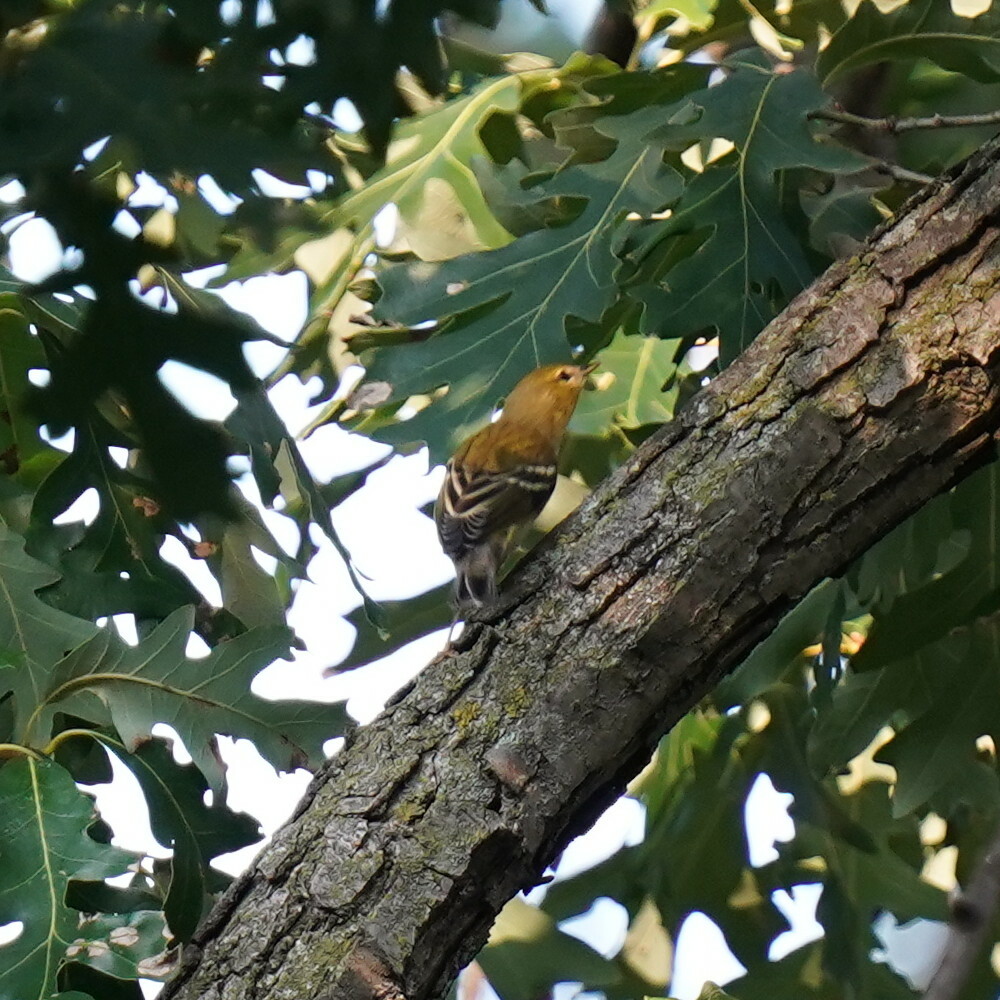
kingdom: Animalia
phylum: Chordata
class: Aves
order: Passeriformes
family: Parulidae
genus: Setophaga
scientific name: Setophaga striata
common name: Blackpoll warbler
